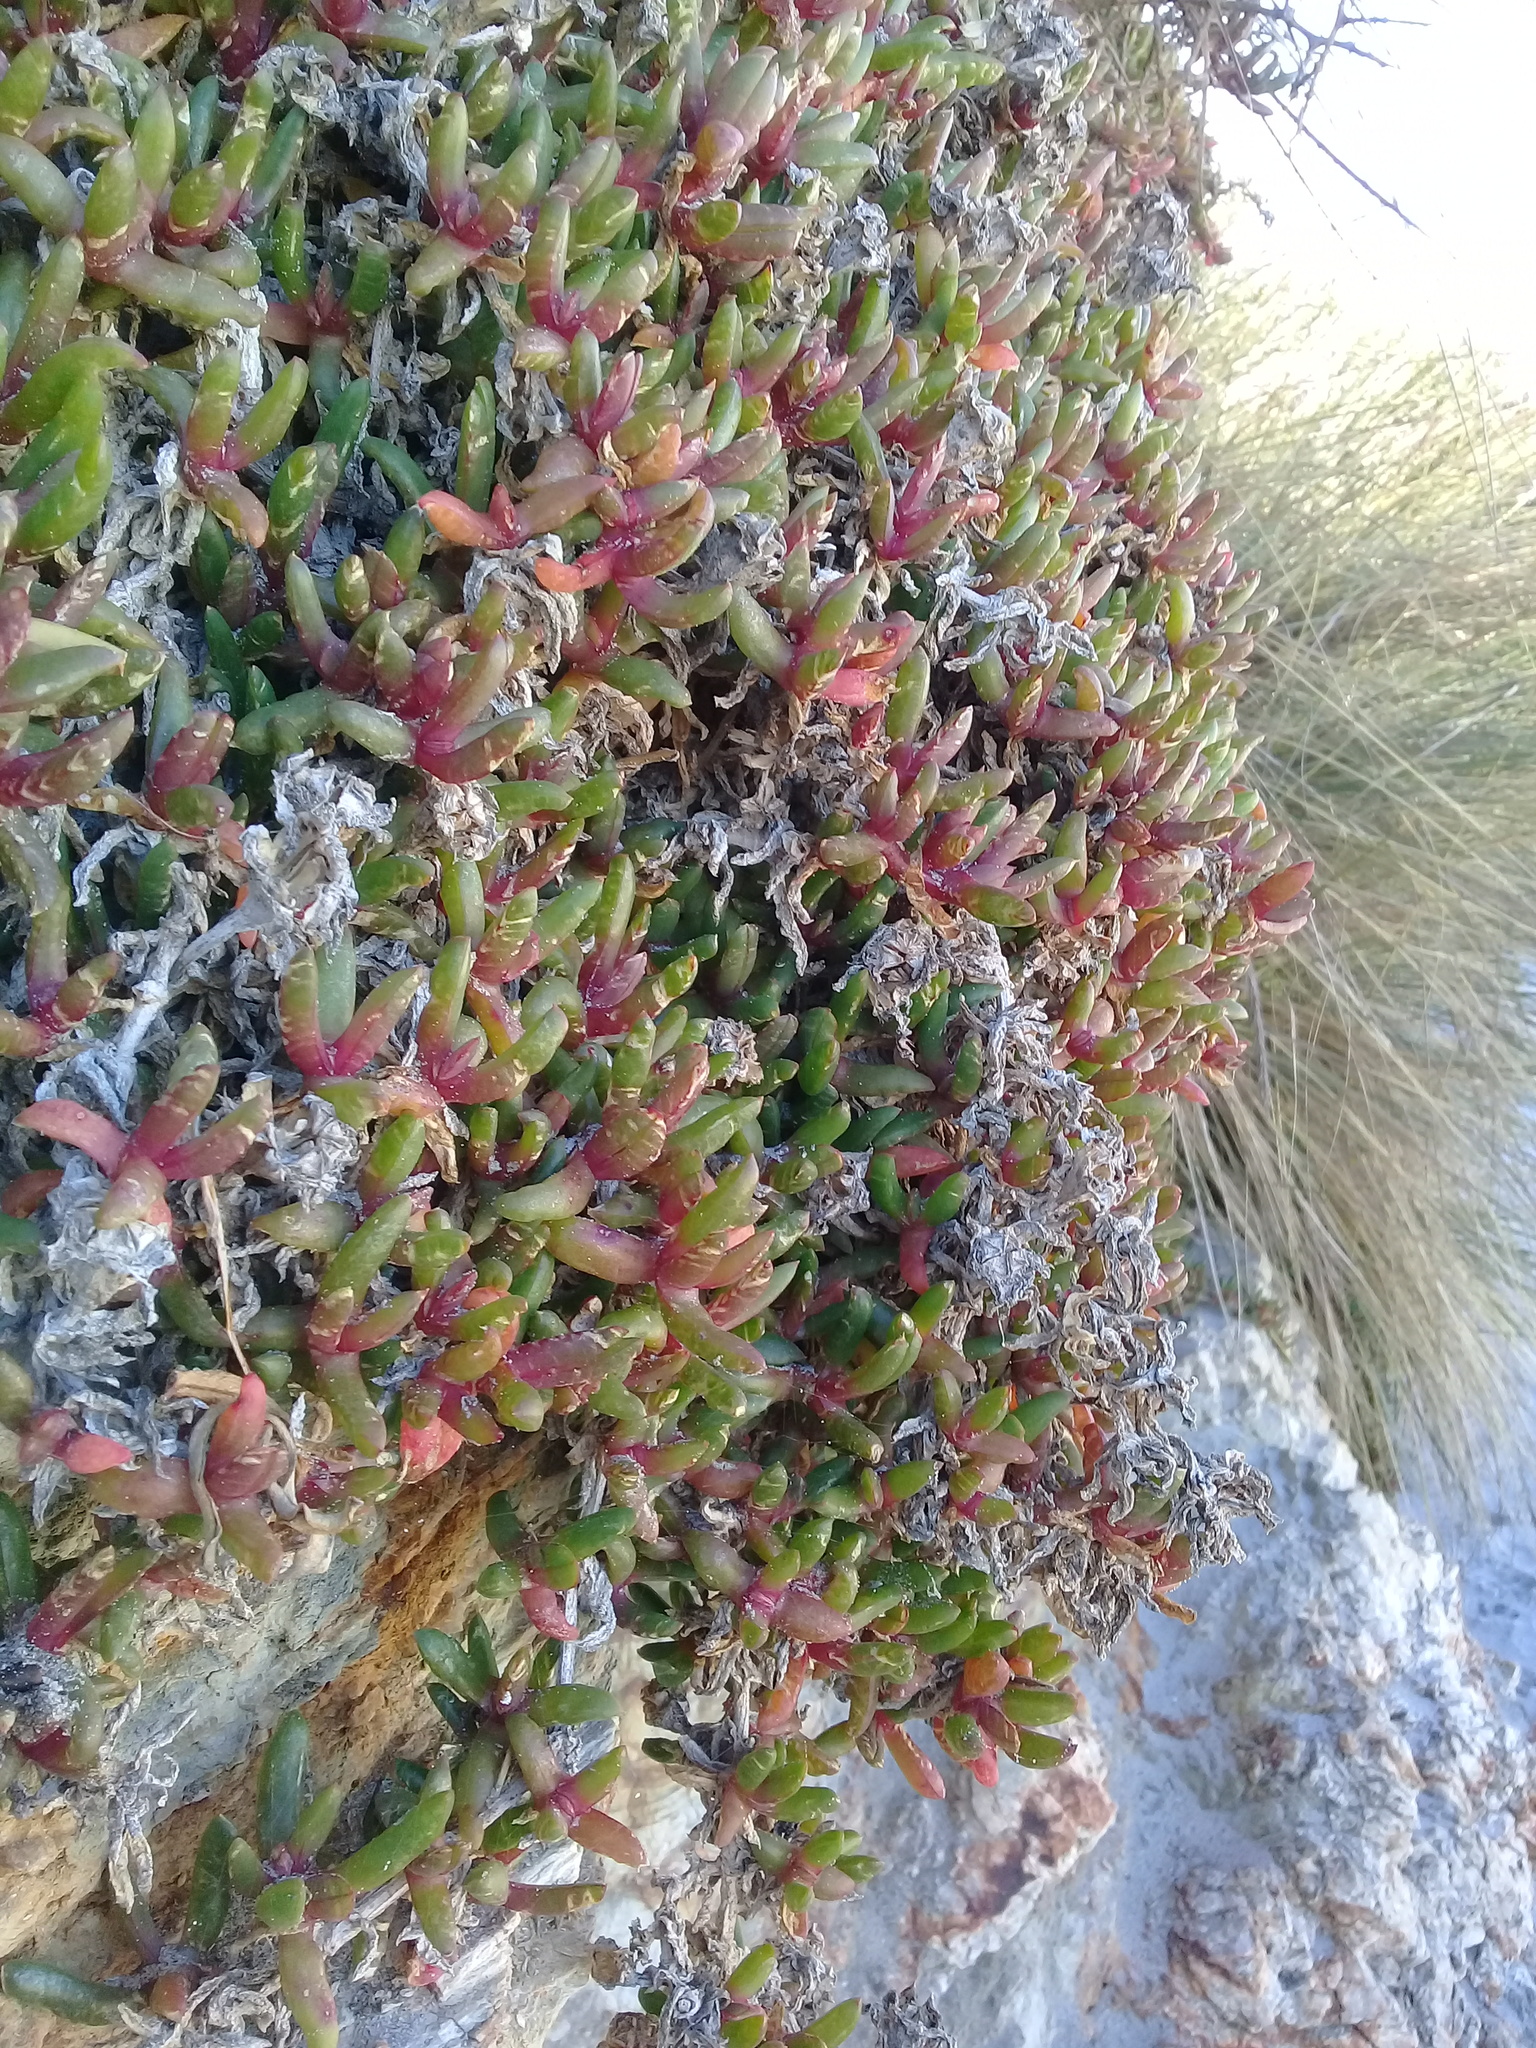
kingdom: Plantae
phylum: Tracheophyta
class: Magnoliopsida
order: Caryophyllales
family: Aizoaceae
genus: Disphyma
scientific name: Disphyma australe
